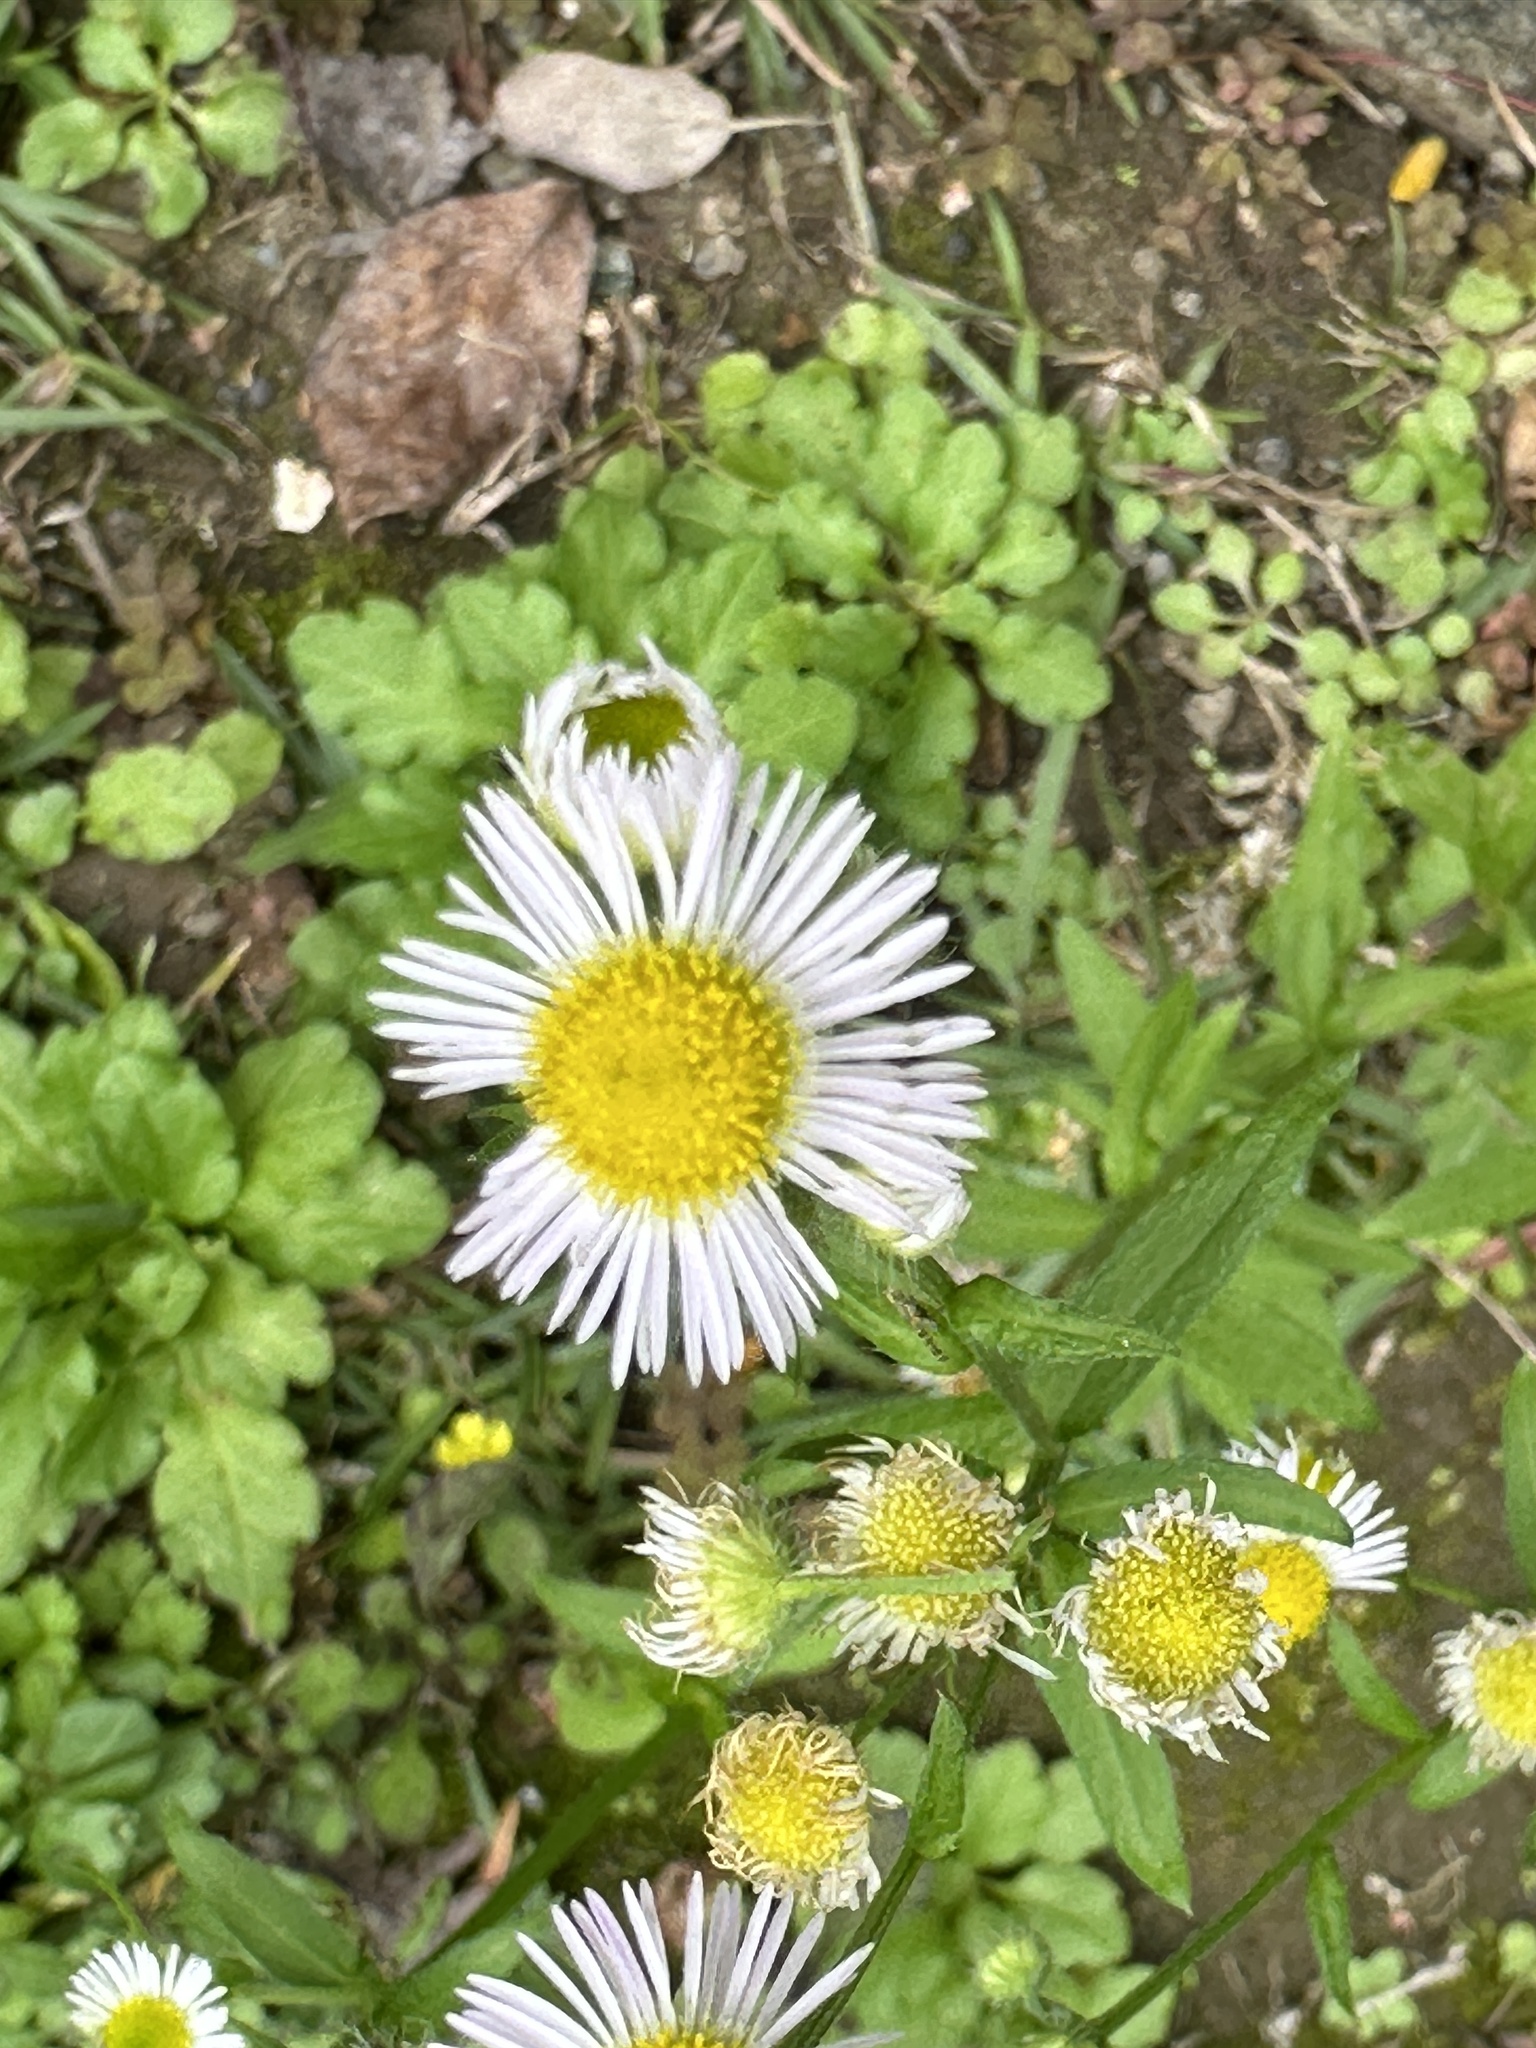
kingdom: Plantae
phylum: Tracheophyta
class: Magnoliopsida
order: Asterales
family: Asteraceae
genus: Erigeron
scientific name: Erigeron annuus
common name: Tall fleabane
